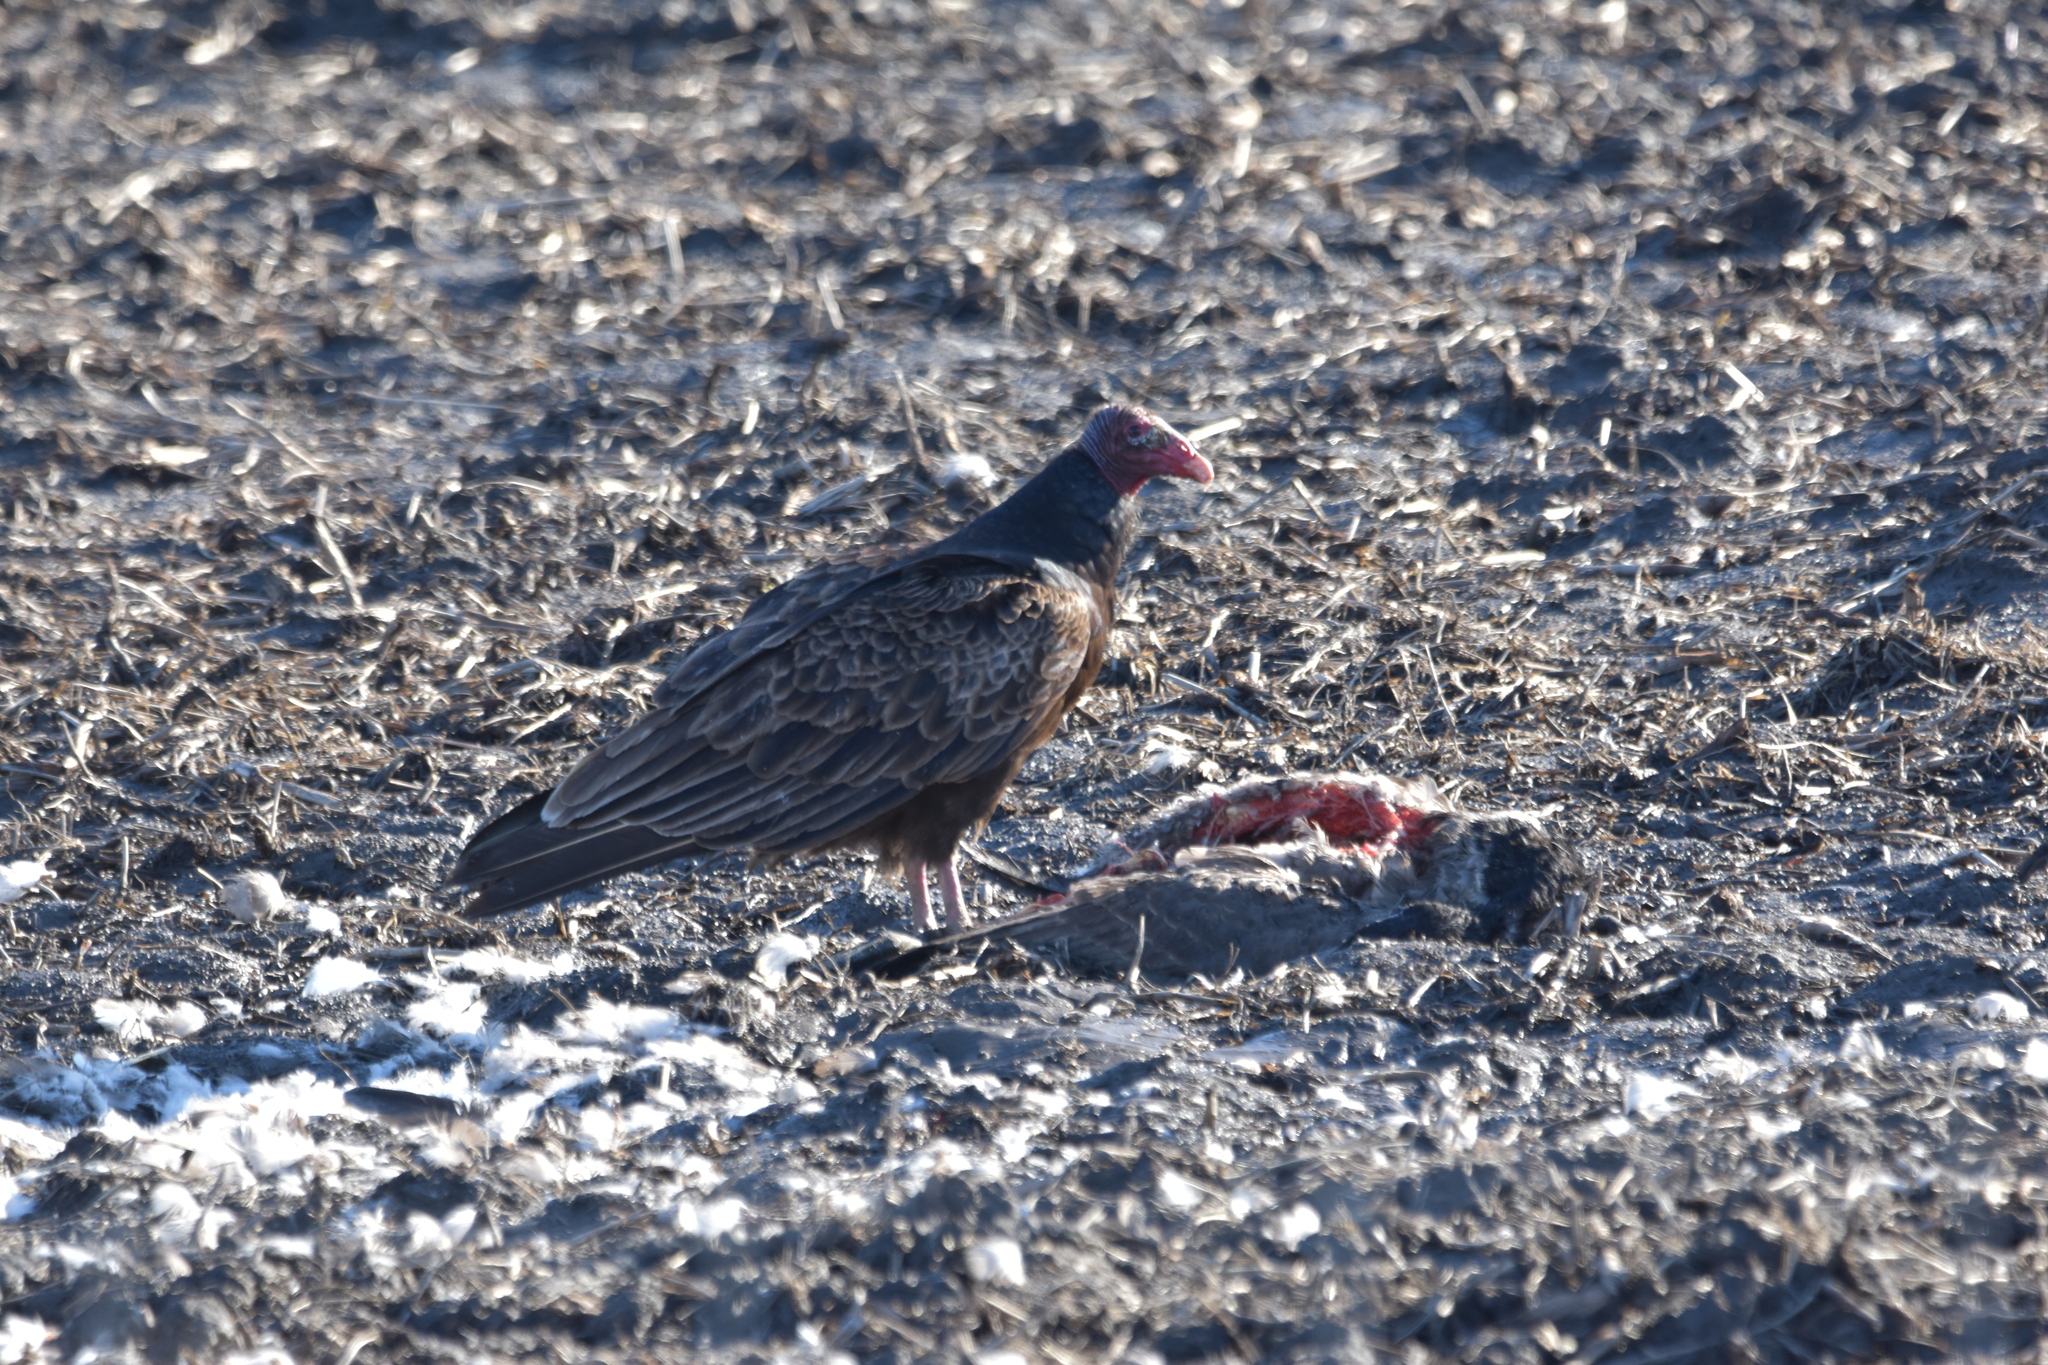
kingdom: Animalia
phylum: Chordata
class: Aves
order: Accipitriformes
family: Cathartidae
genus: Cathartes
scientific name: Cathartes aura
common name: Turkey vulture
